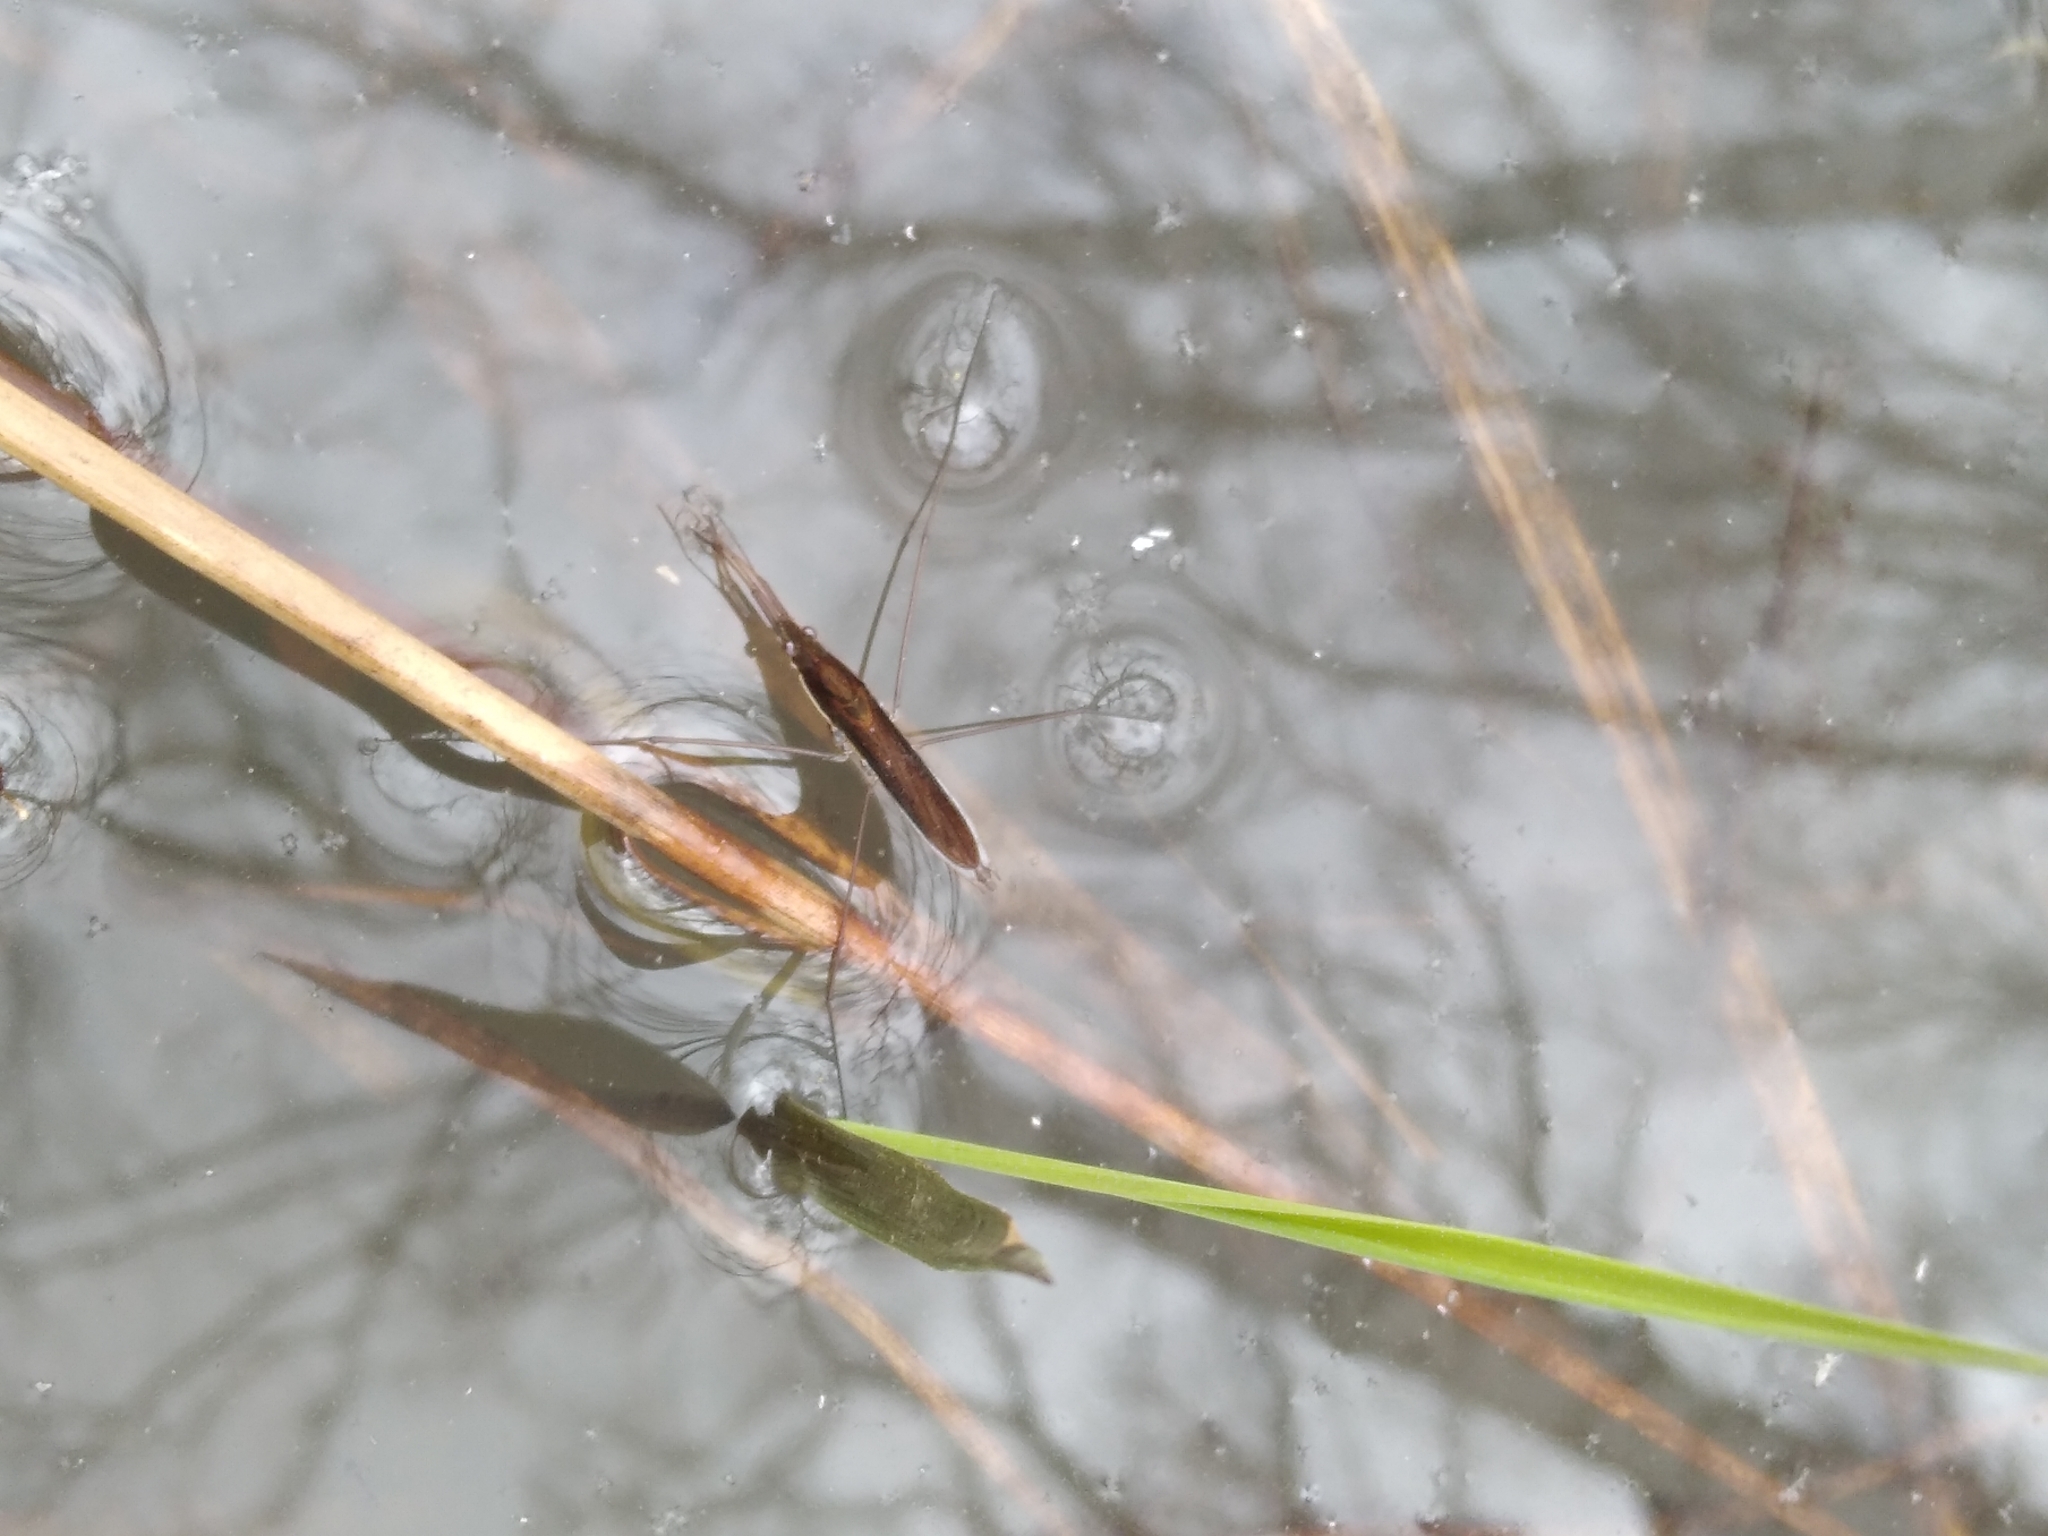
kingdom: Animalia
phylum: Arthropoda
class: Insecta
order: Hemiptera
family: Gerridae
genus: Limnoporus
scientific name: Limnoporus rufoscutellatus
